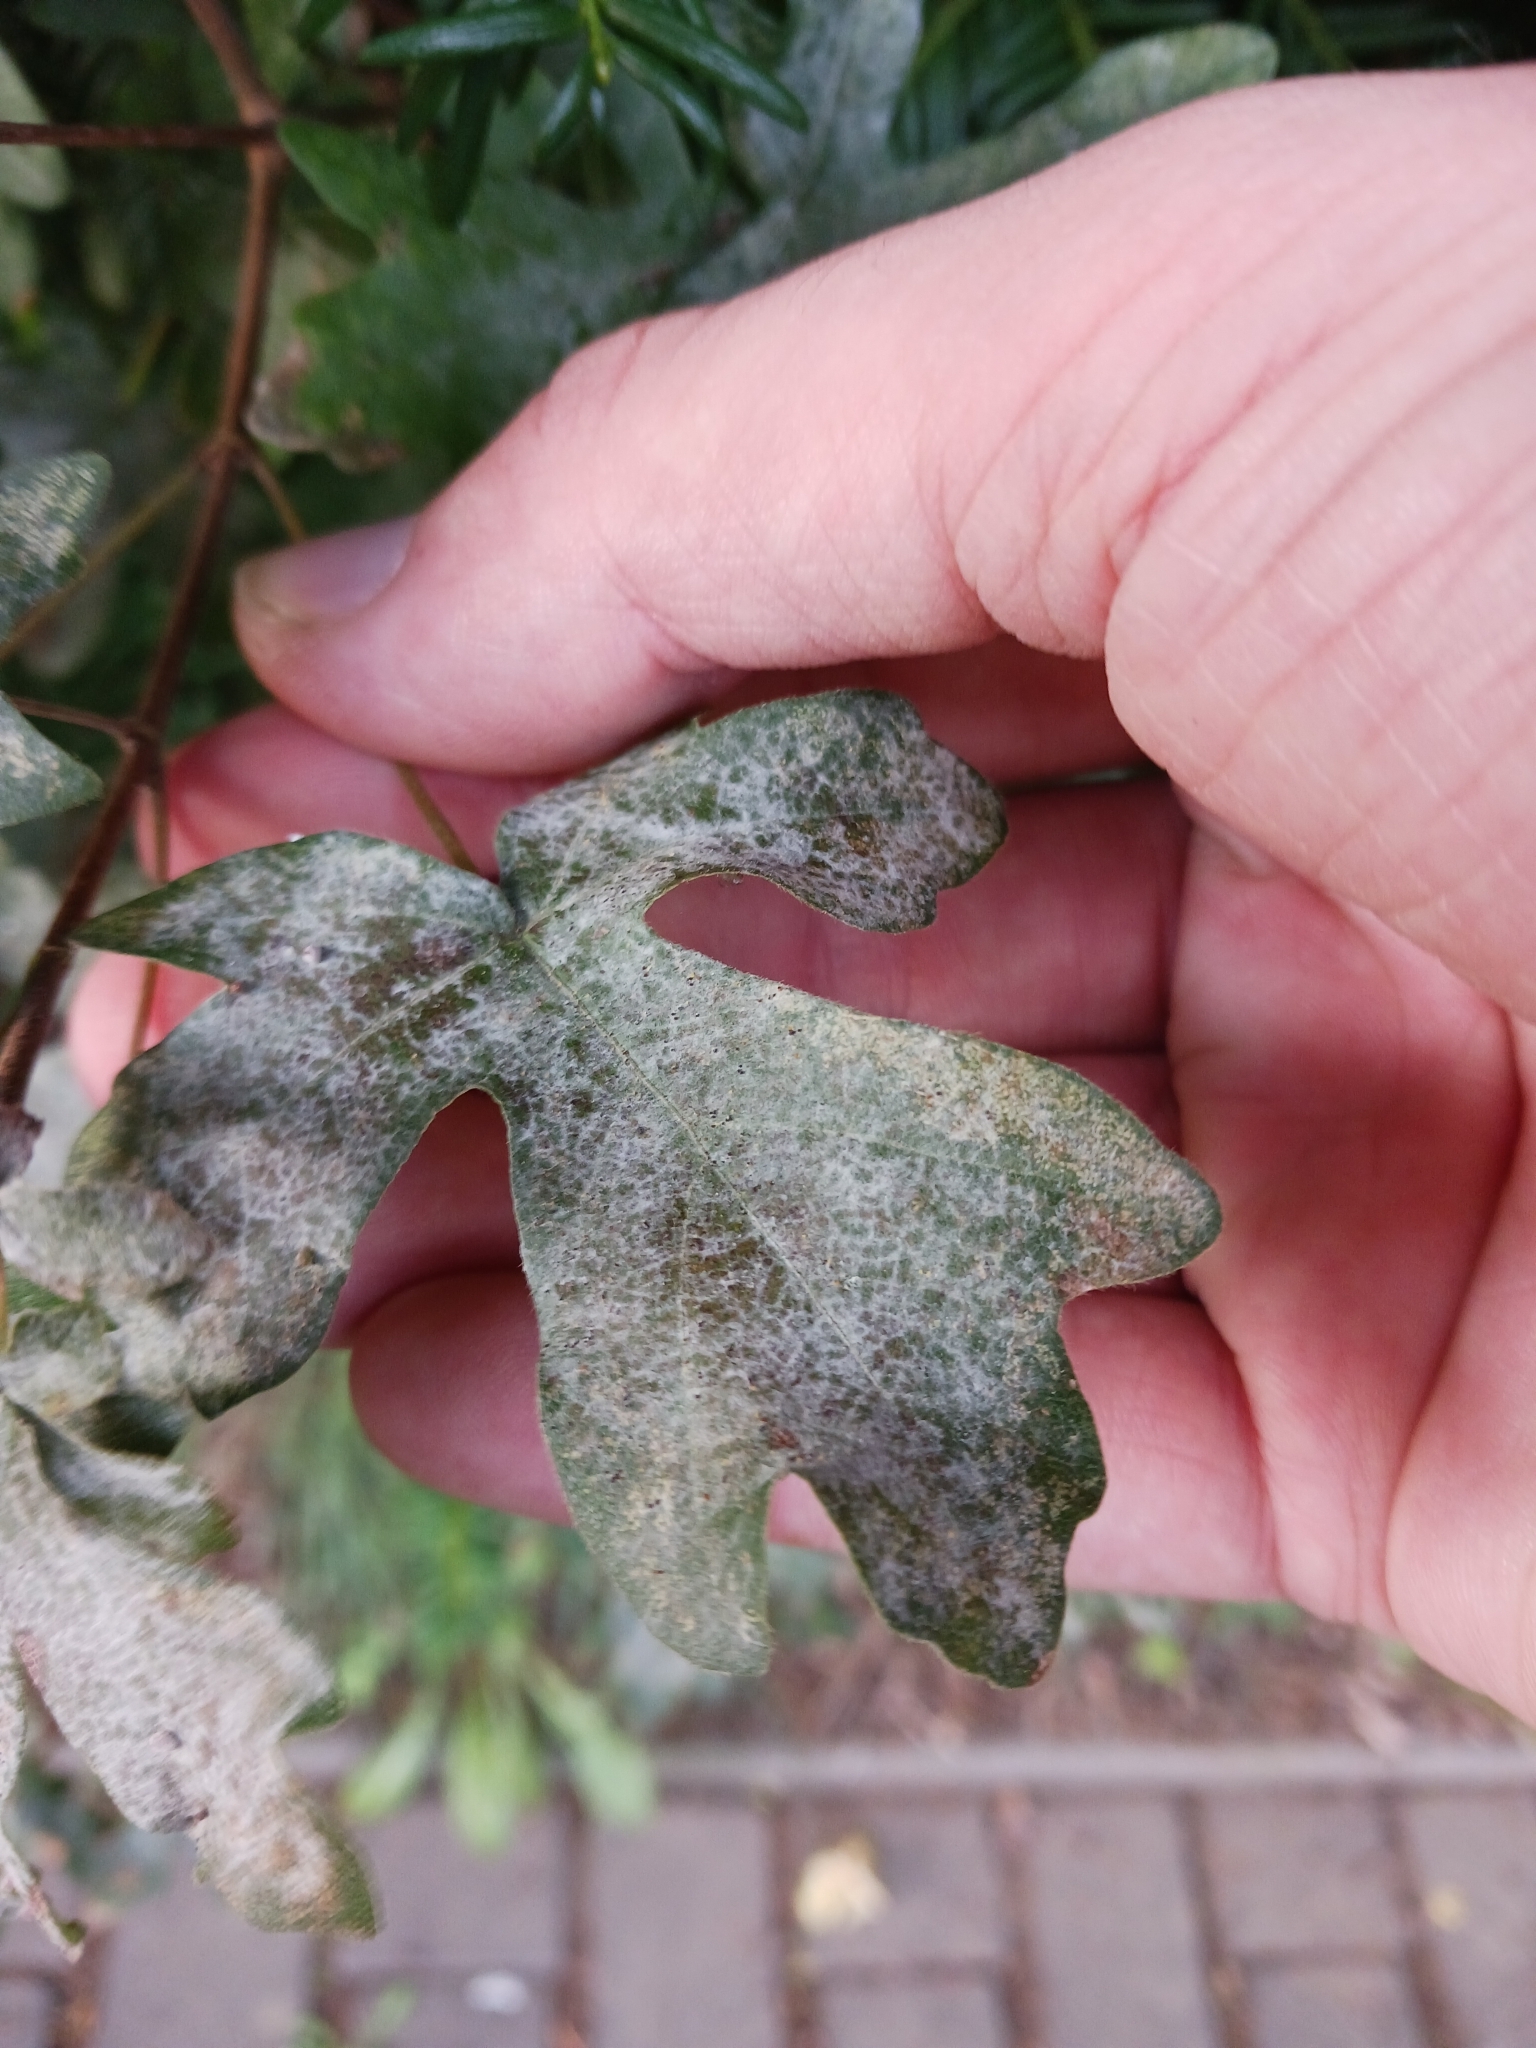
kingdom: Fungi
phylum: Ascomycota
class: Leotiomycetes
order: Helotiales
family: Erysiphaceae
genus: Sawadaea
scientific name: Sawadaea bicornis
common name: Maple mildew
